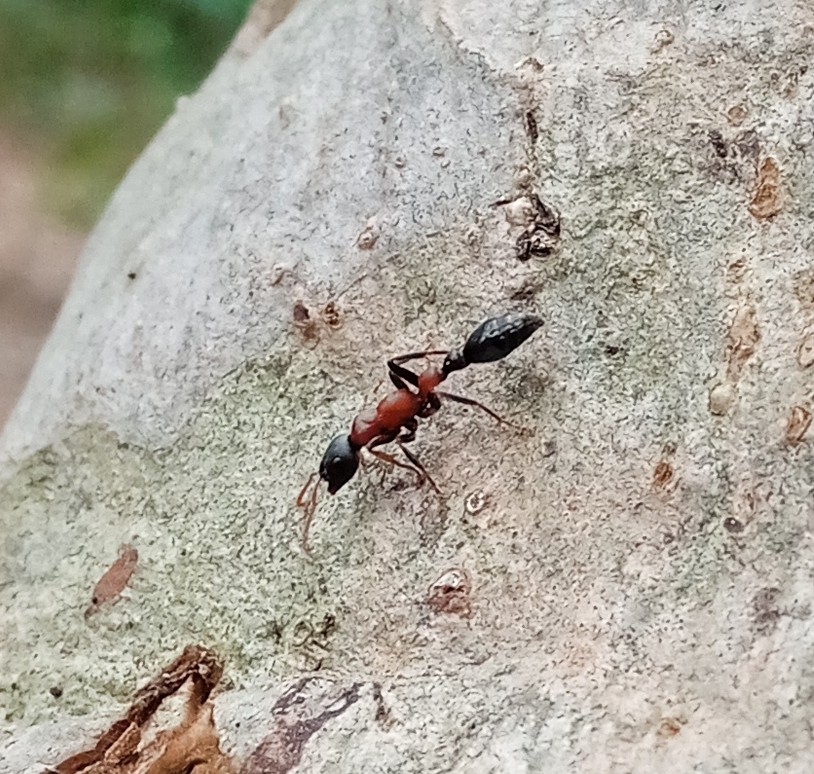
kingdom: Animalia
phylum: Arthropoda
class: Insecta
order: Hymenoptera
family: Formicidae
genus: Tetraponera
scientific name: Tetraponera rufonigra
